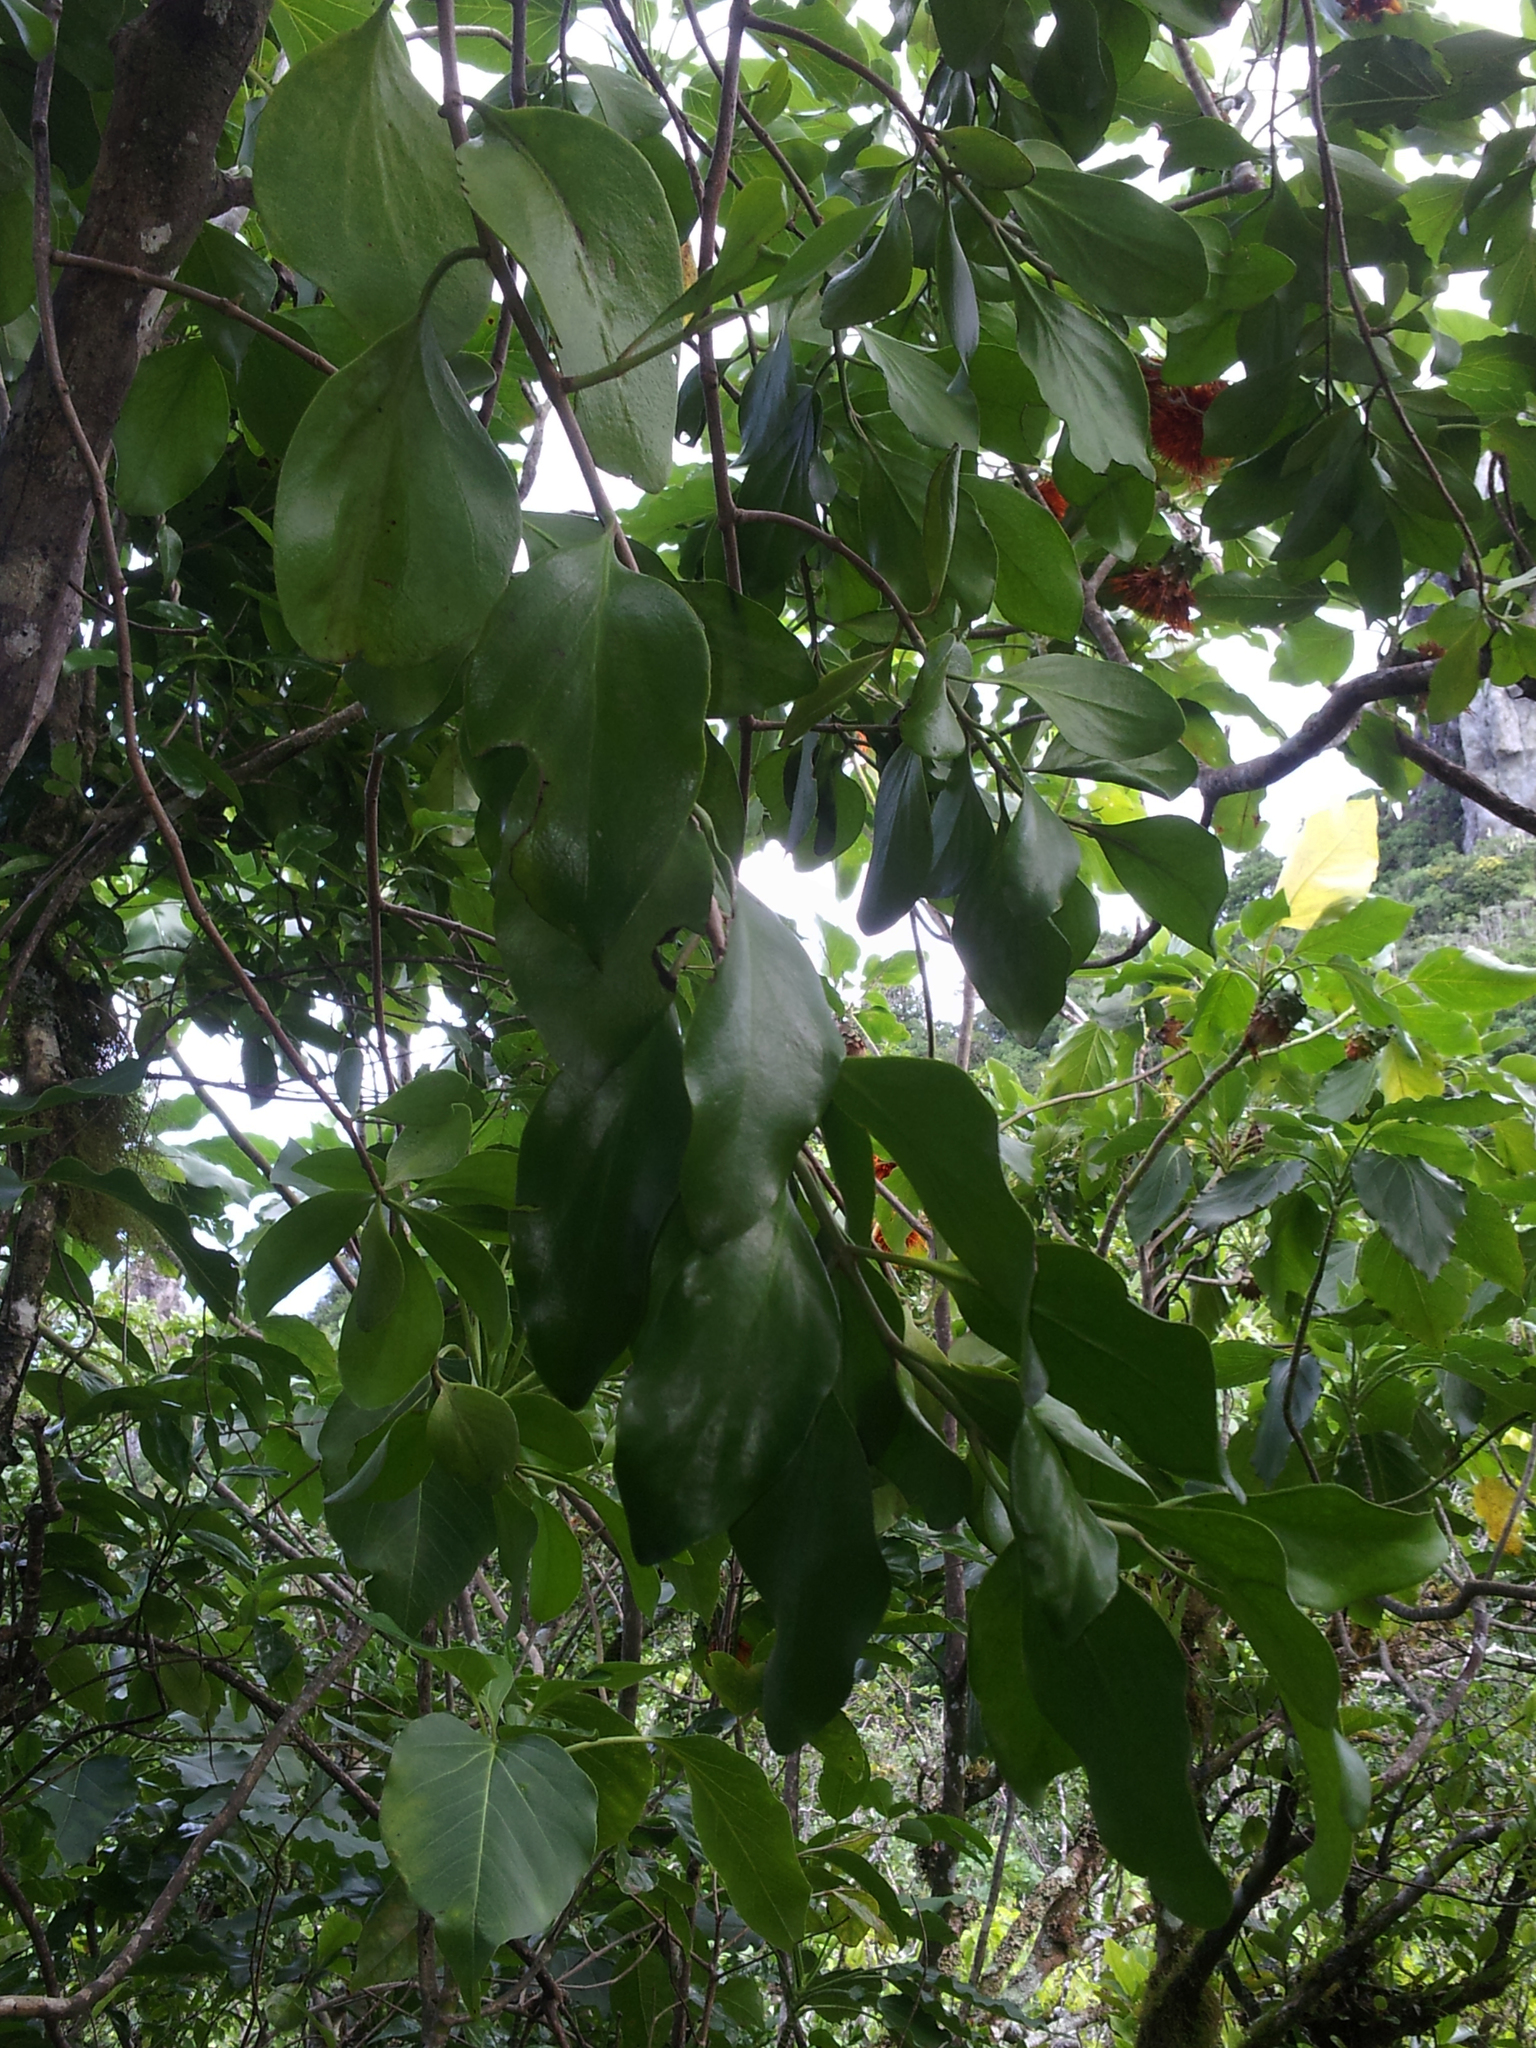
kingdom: Plantae
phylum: Tracheophyta
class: Magnoliopsida
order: Santalales
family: Loranthaceae
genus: Decaisnina
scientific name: Decaisnina forsteriana
